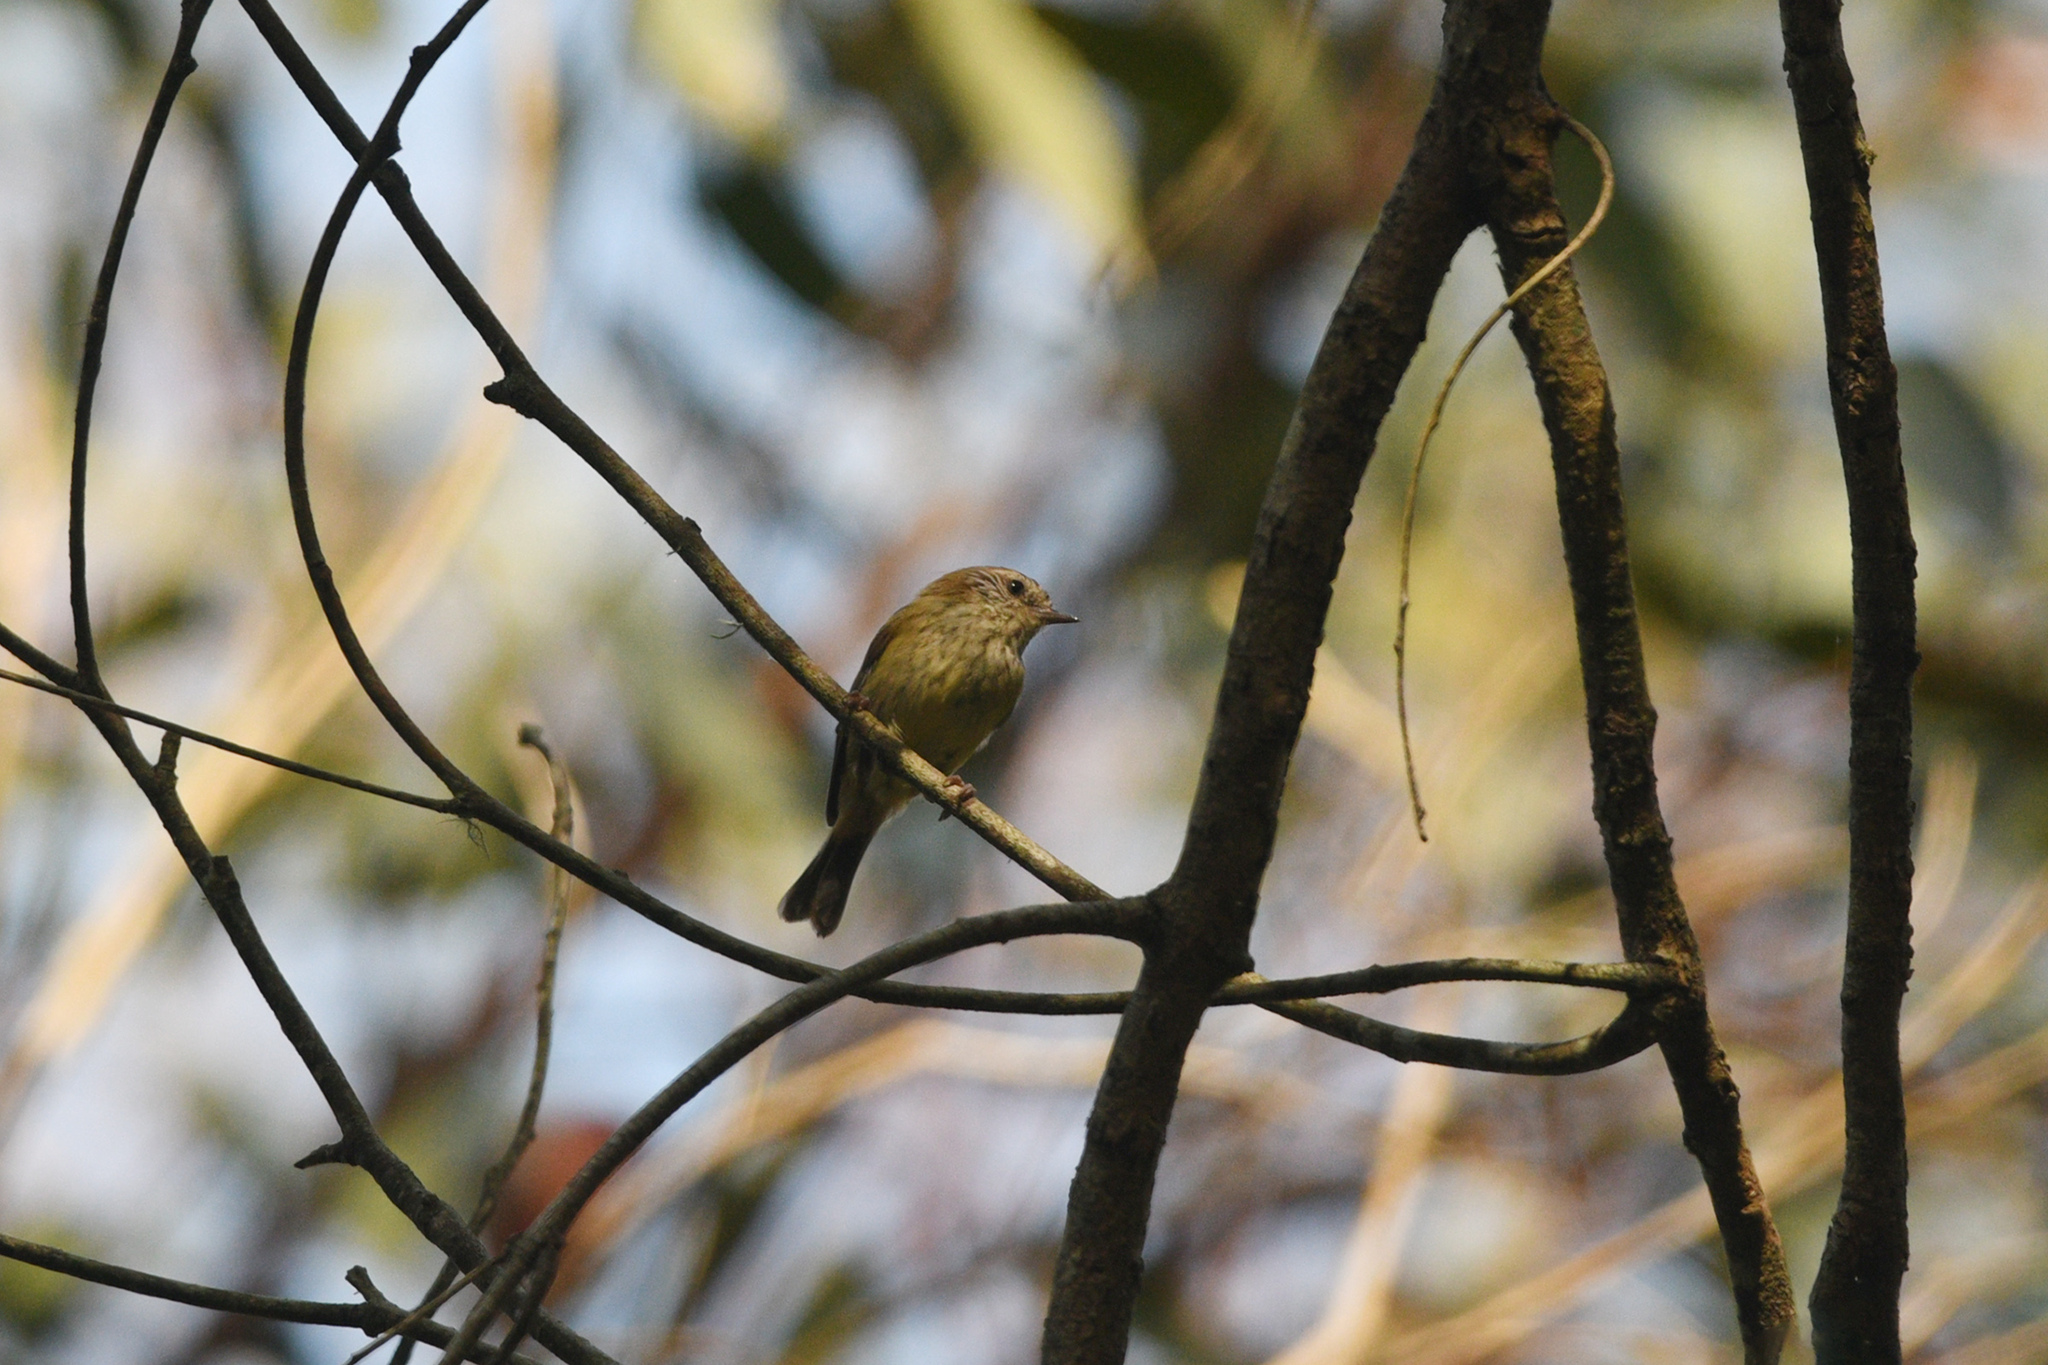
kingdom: Animalia
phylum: Chordata
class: Aves
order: Passeriformes
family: Acanthizidae
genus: Acanthiza
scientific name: Acanthiza lineata
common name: Striated thornbill
